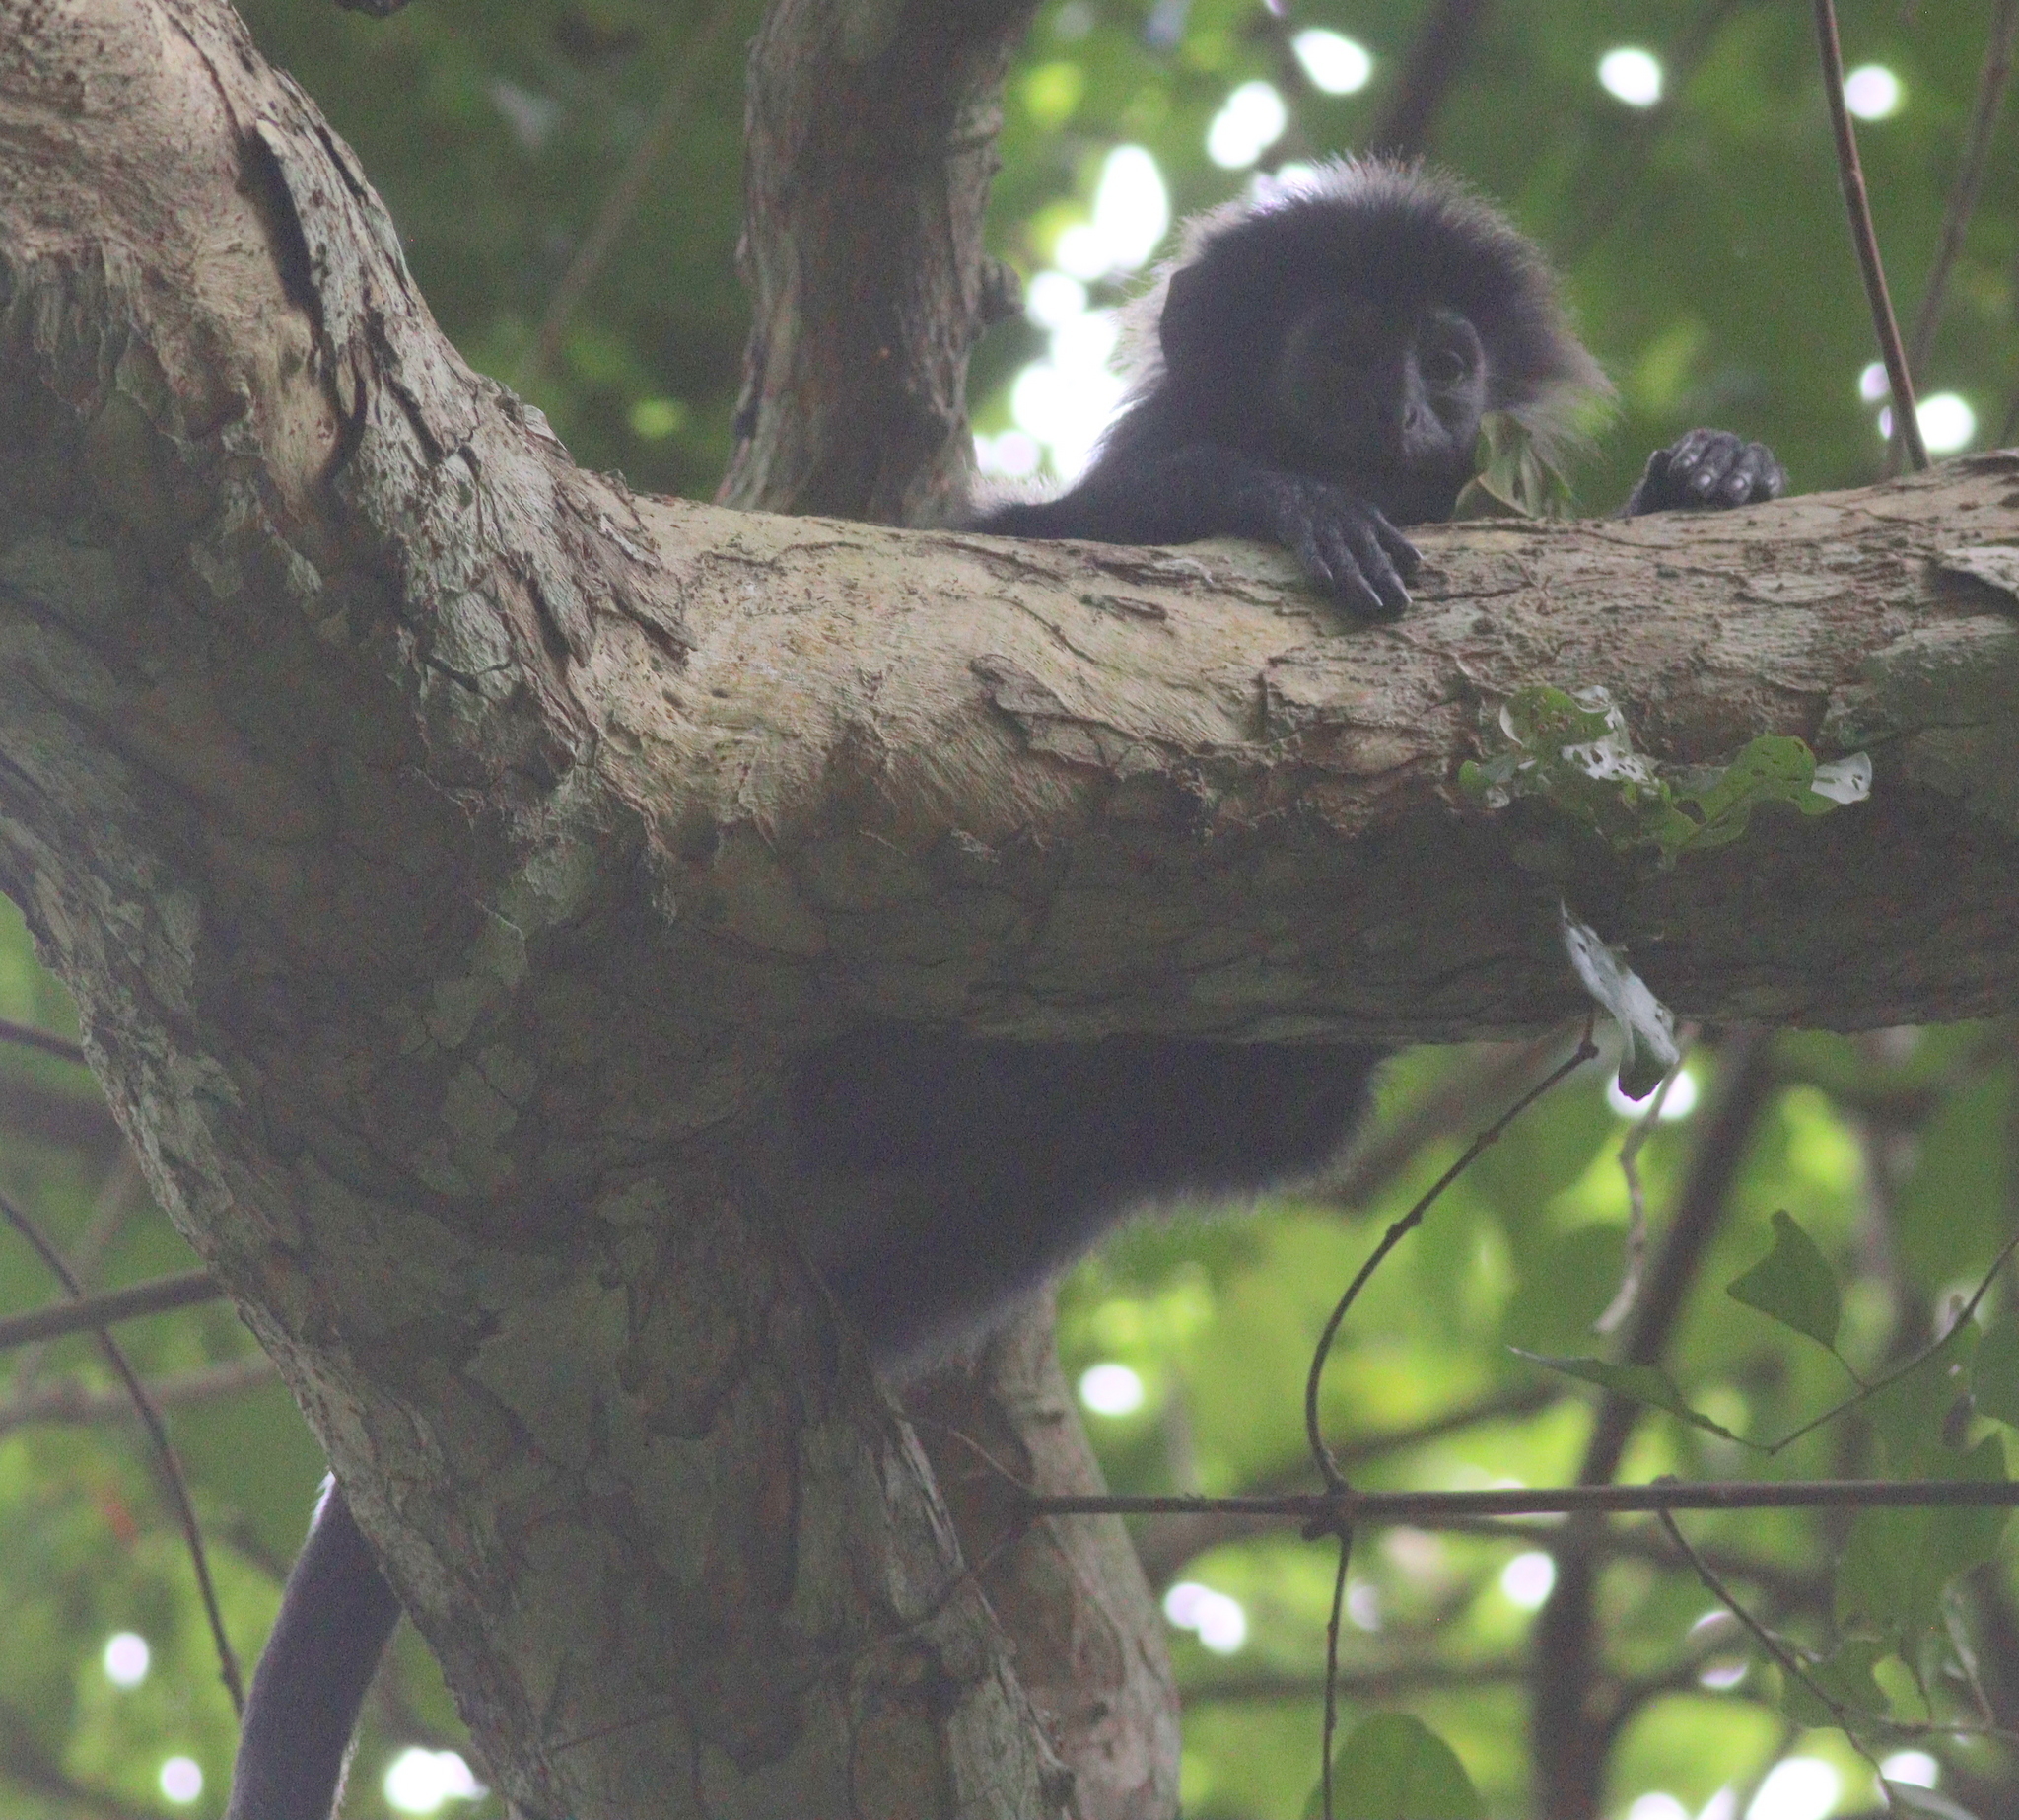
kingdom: Animalia
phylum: Chordata
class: Mammalia
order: Primates
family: Cercopithecidae
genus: Trachypithecus
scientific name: Trachypithecus auratus
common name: Javan lutung
